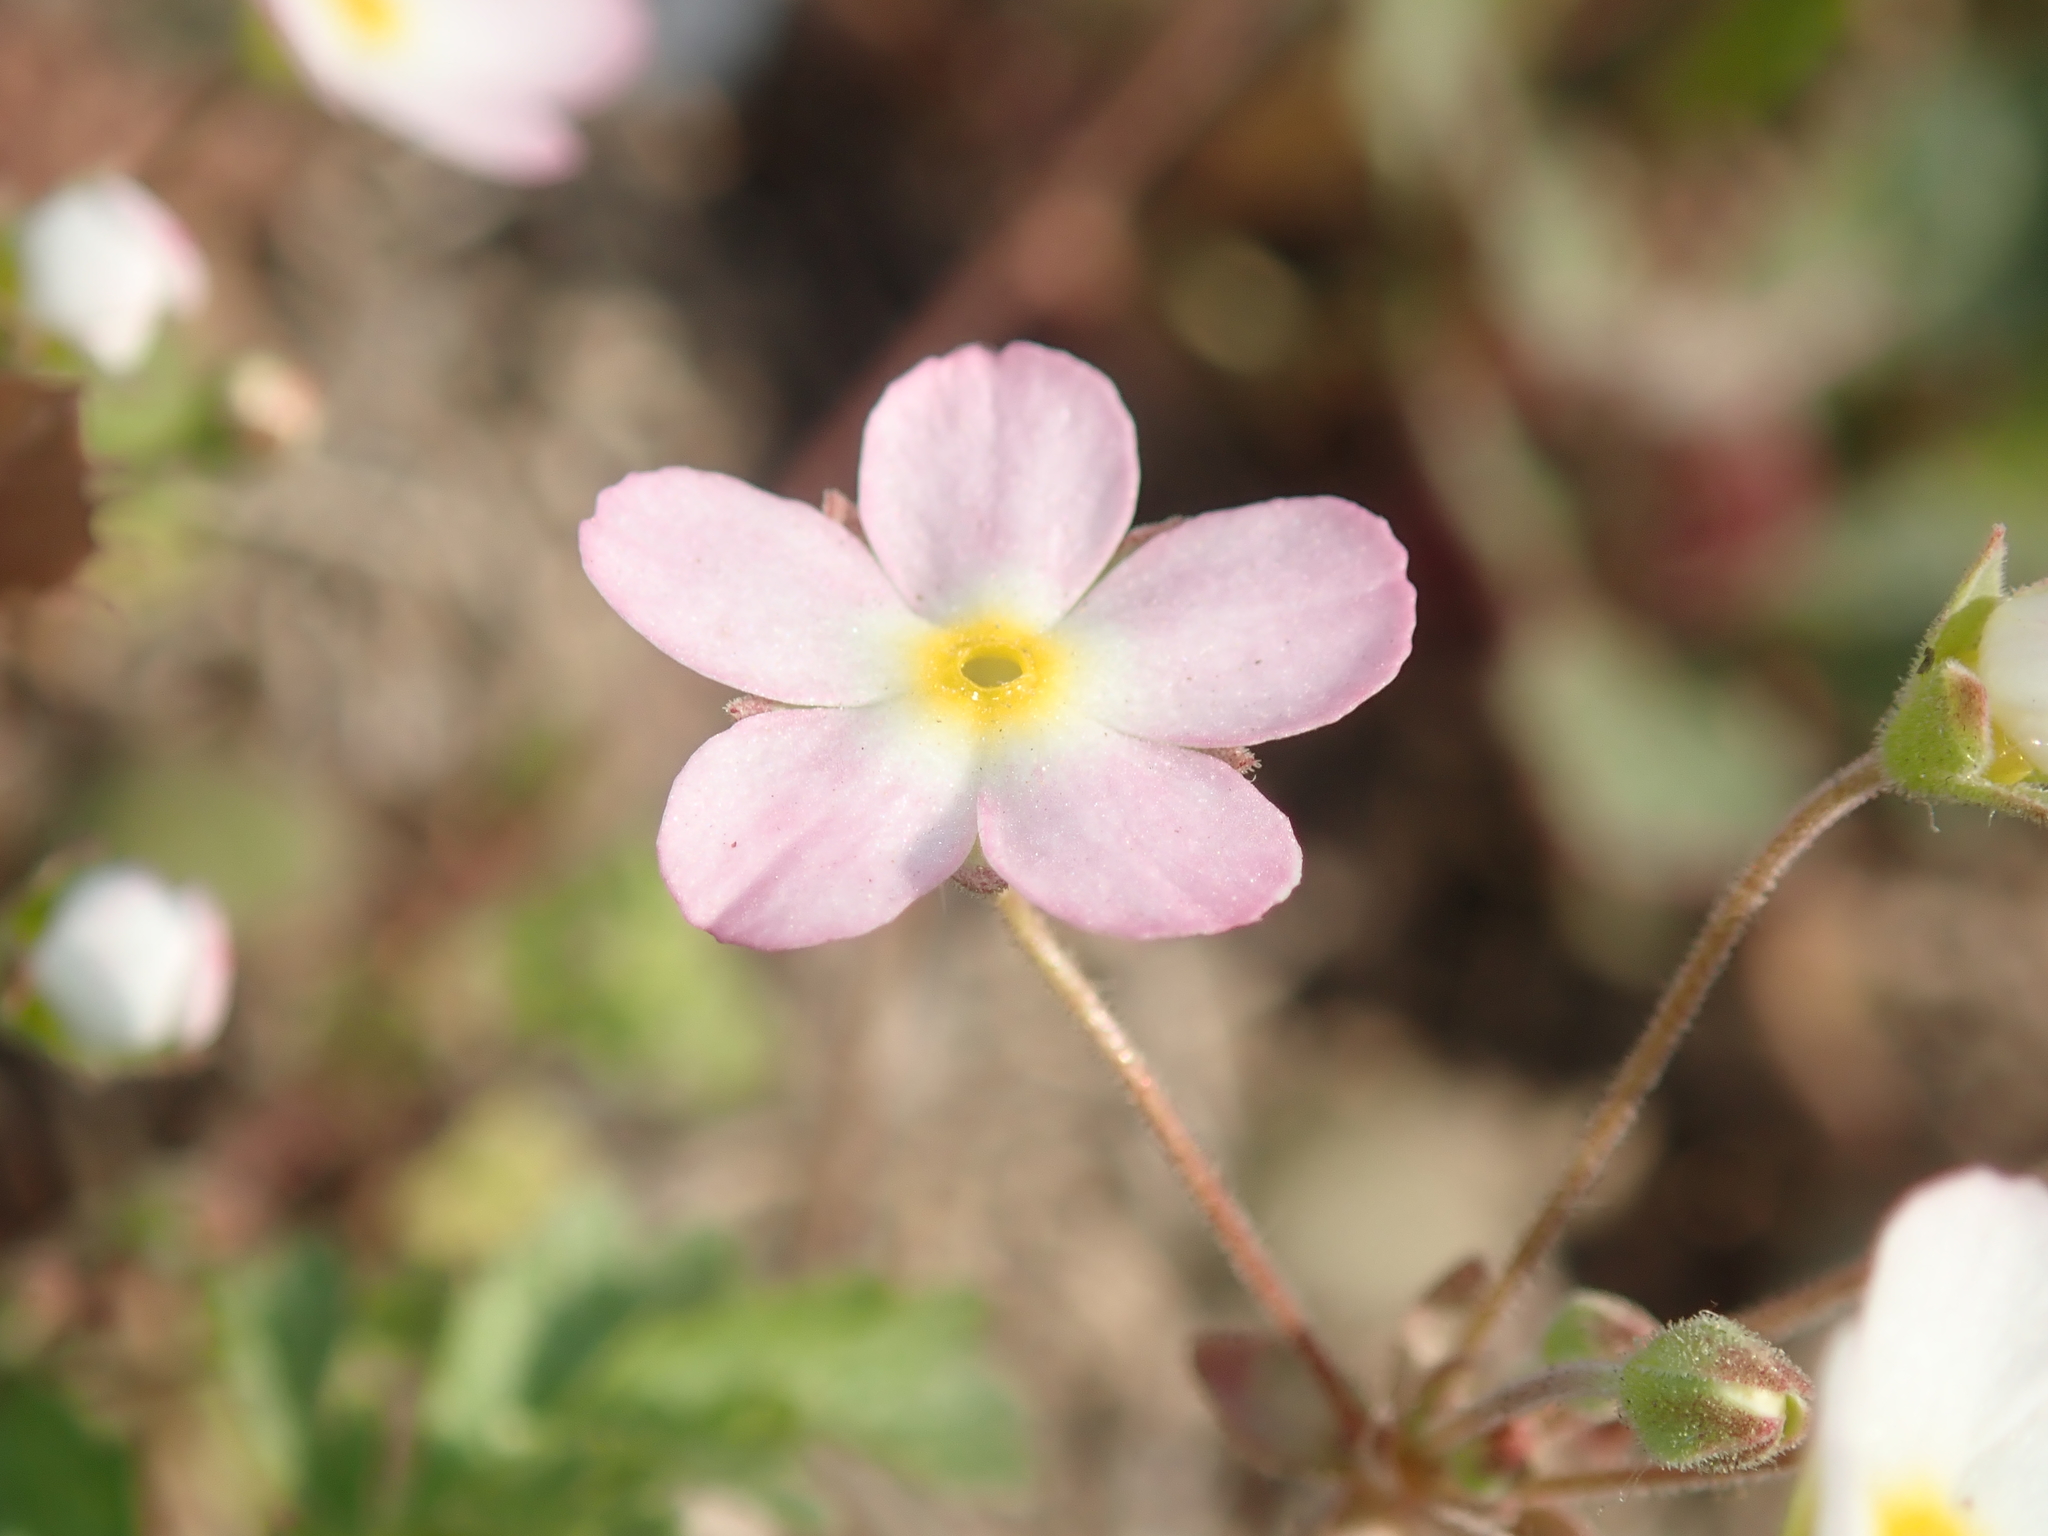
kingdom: Plantae
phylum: Tracheophyta
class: Magnoliopsida
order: Ericales
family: Primulaceae
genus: Androsace
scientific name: Androsace umbellata
